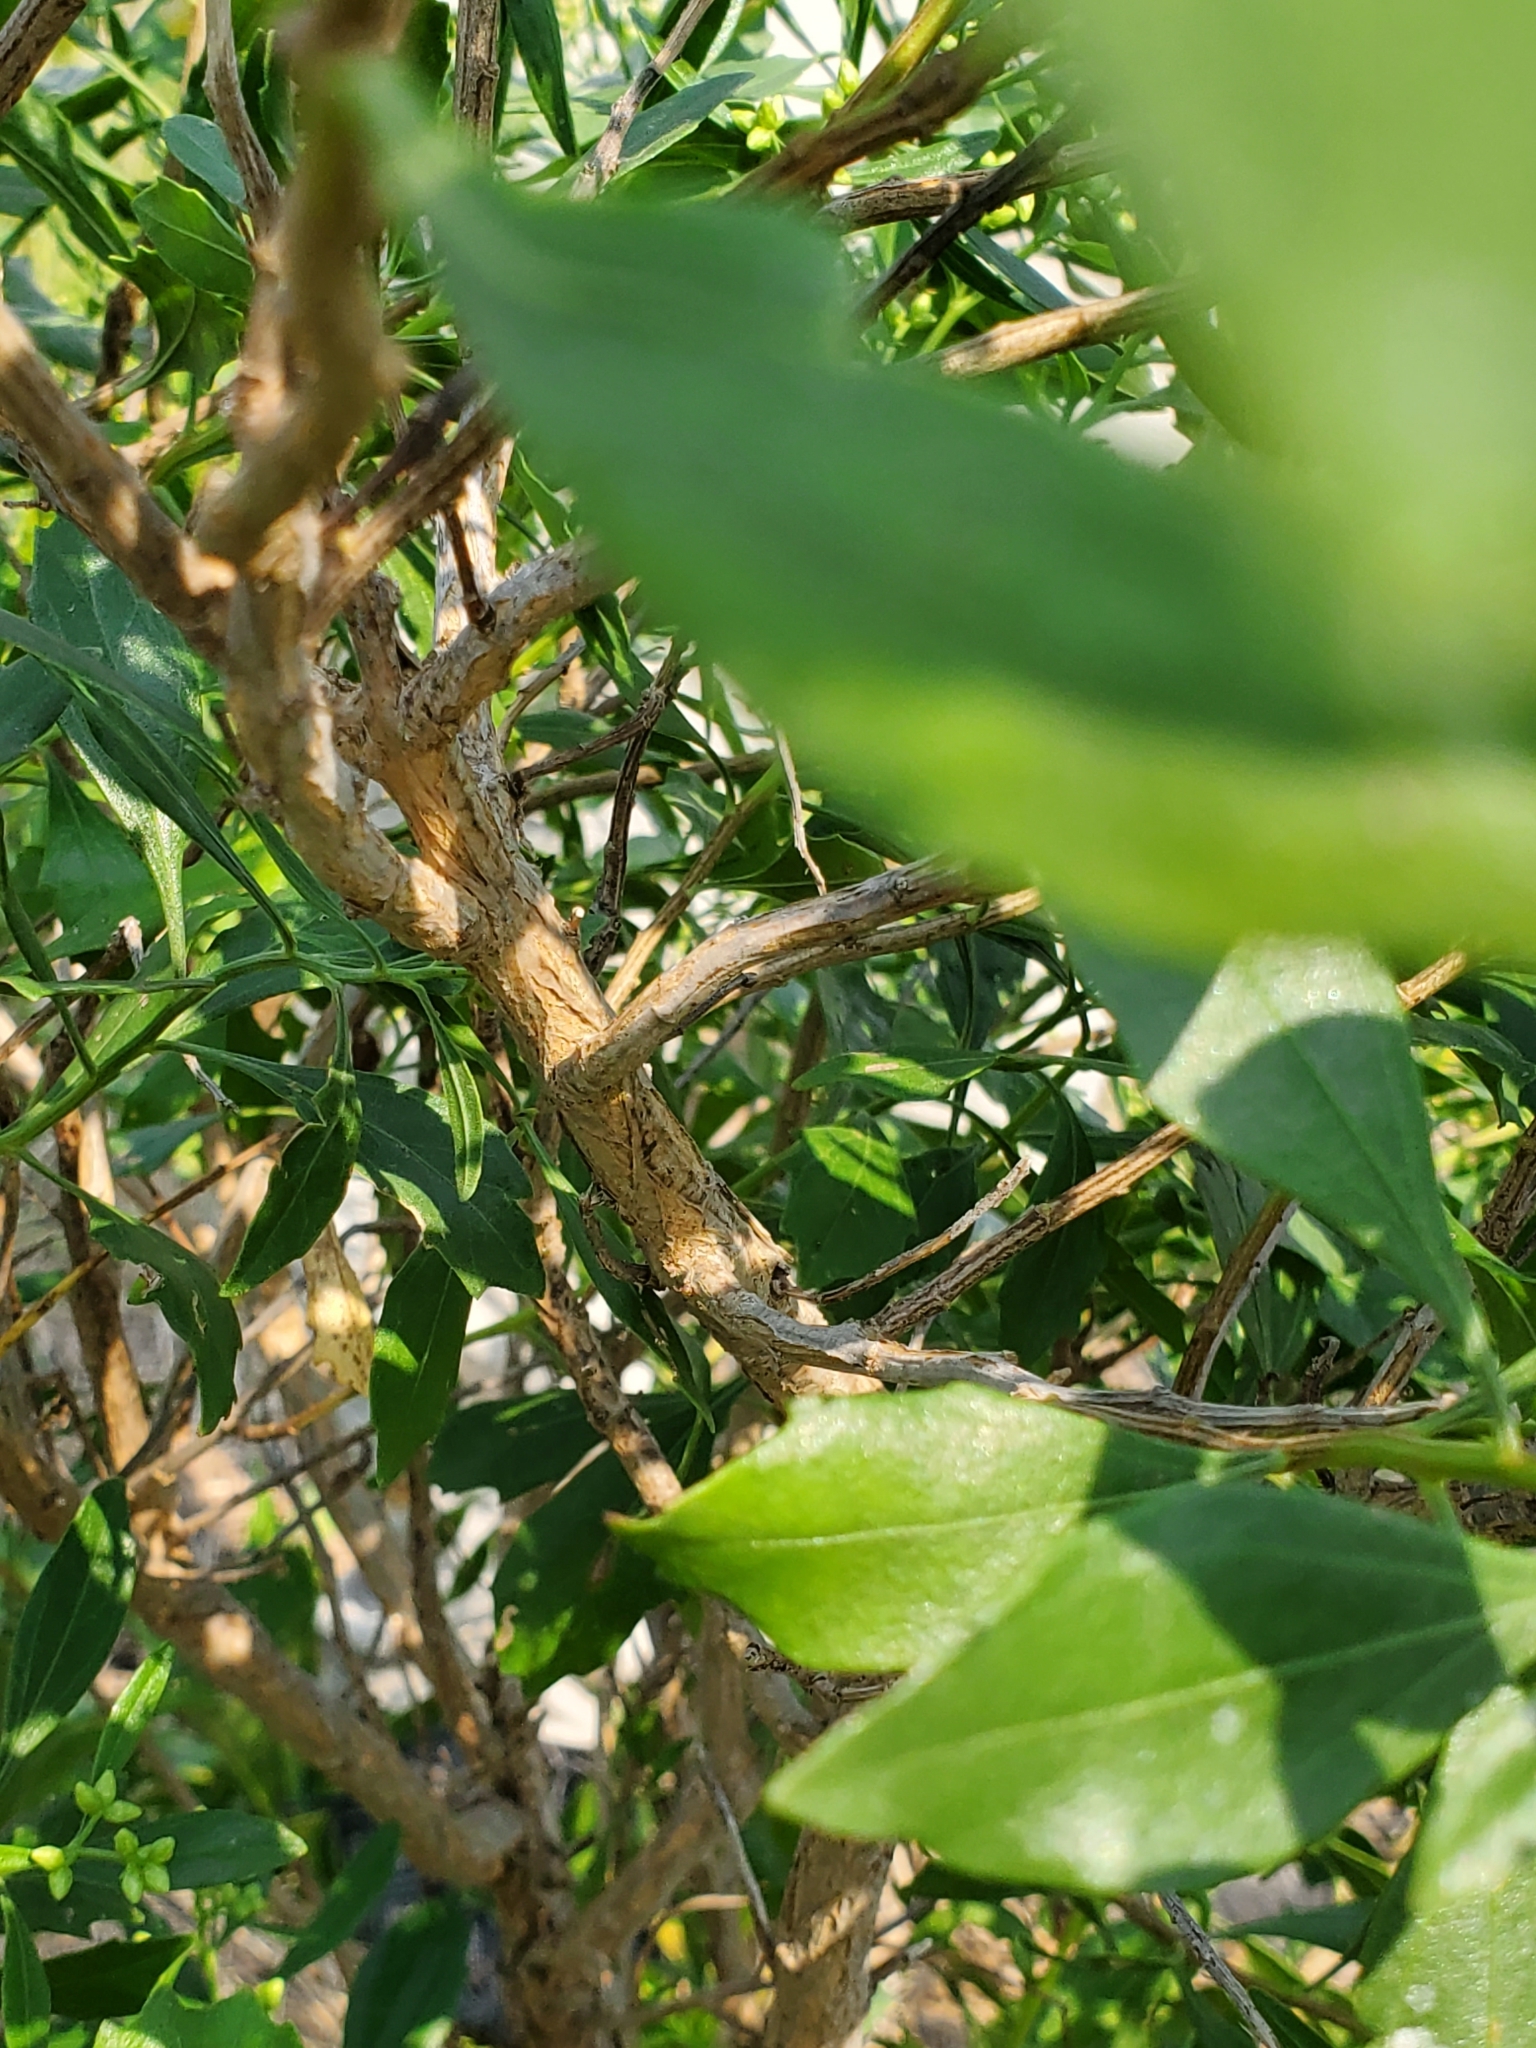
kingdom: Plantae
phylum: Tracheophyta
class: Magnoliopsida
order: Asterales
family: Asteraceae
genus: Baccharis
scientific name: Baccharis halimifolia
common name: Eastern baccharis
